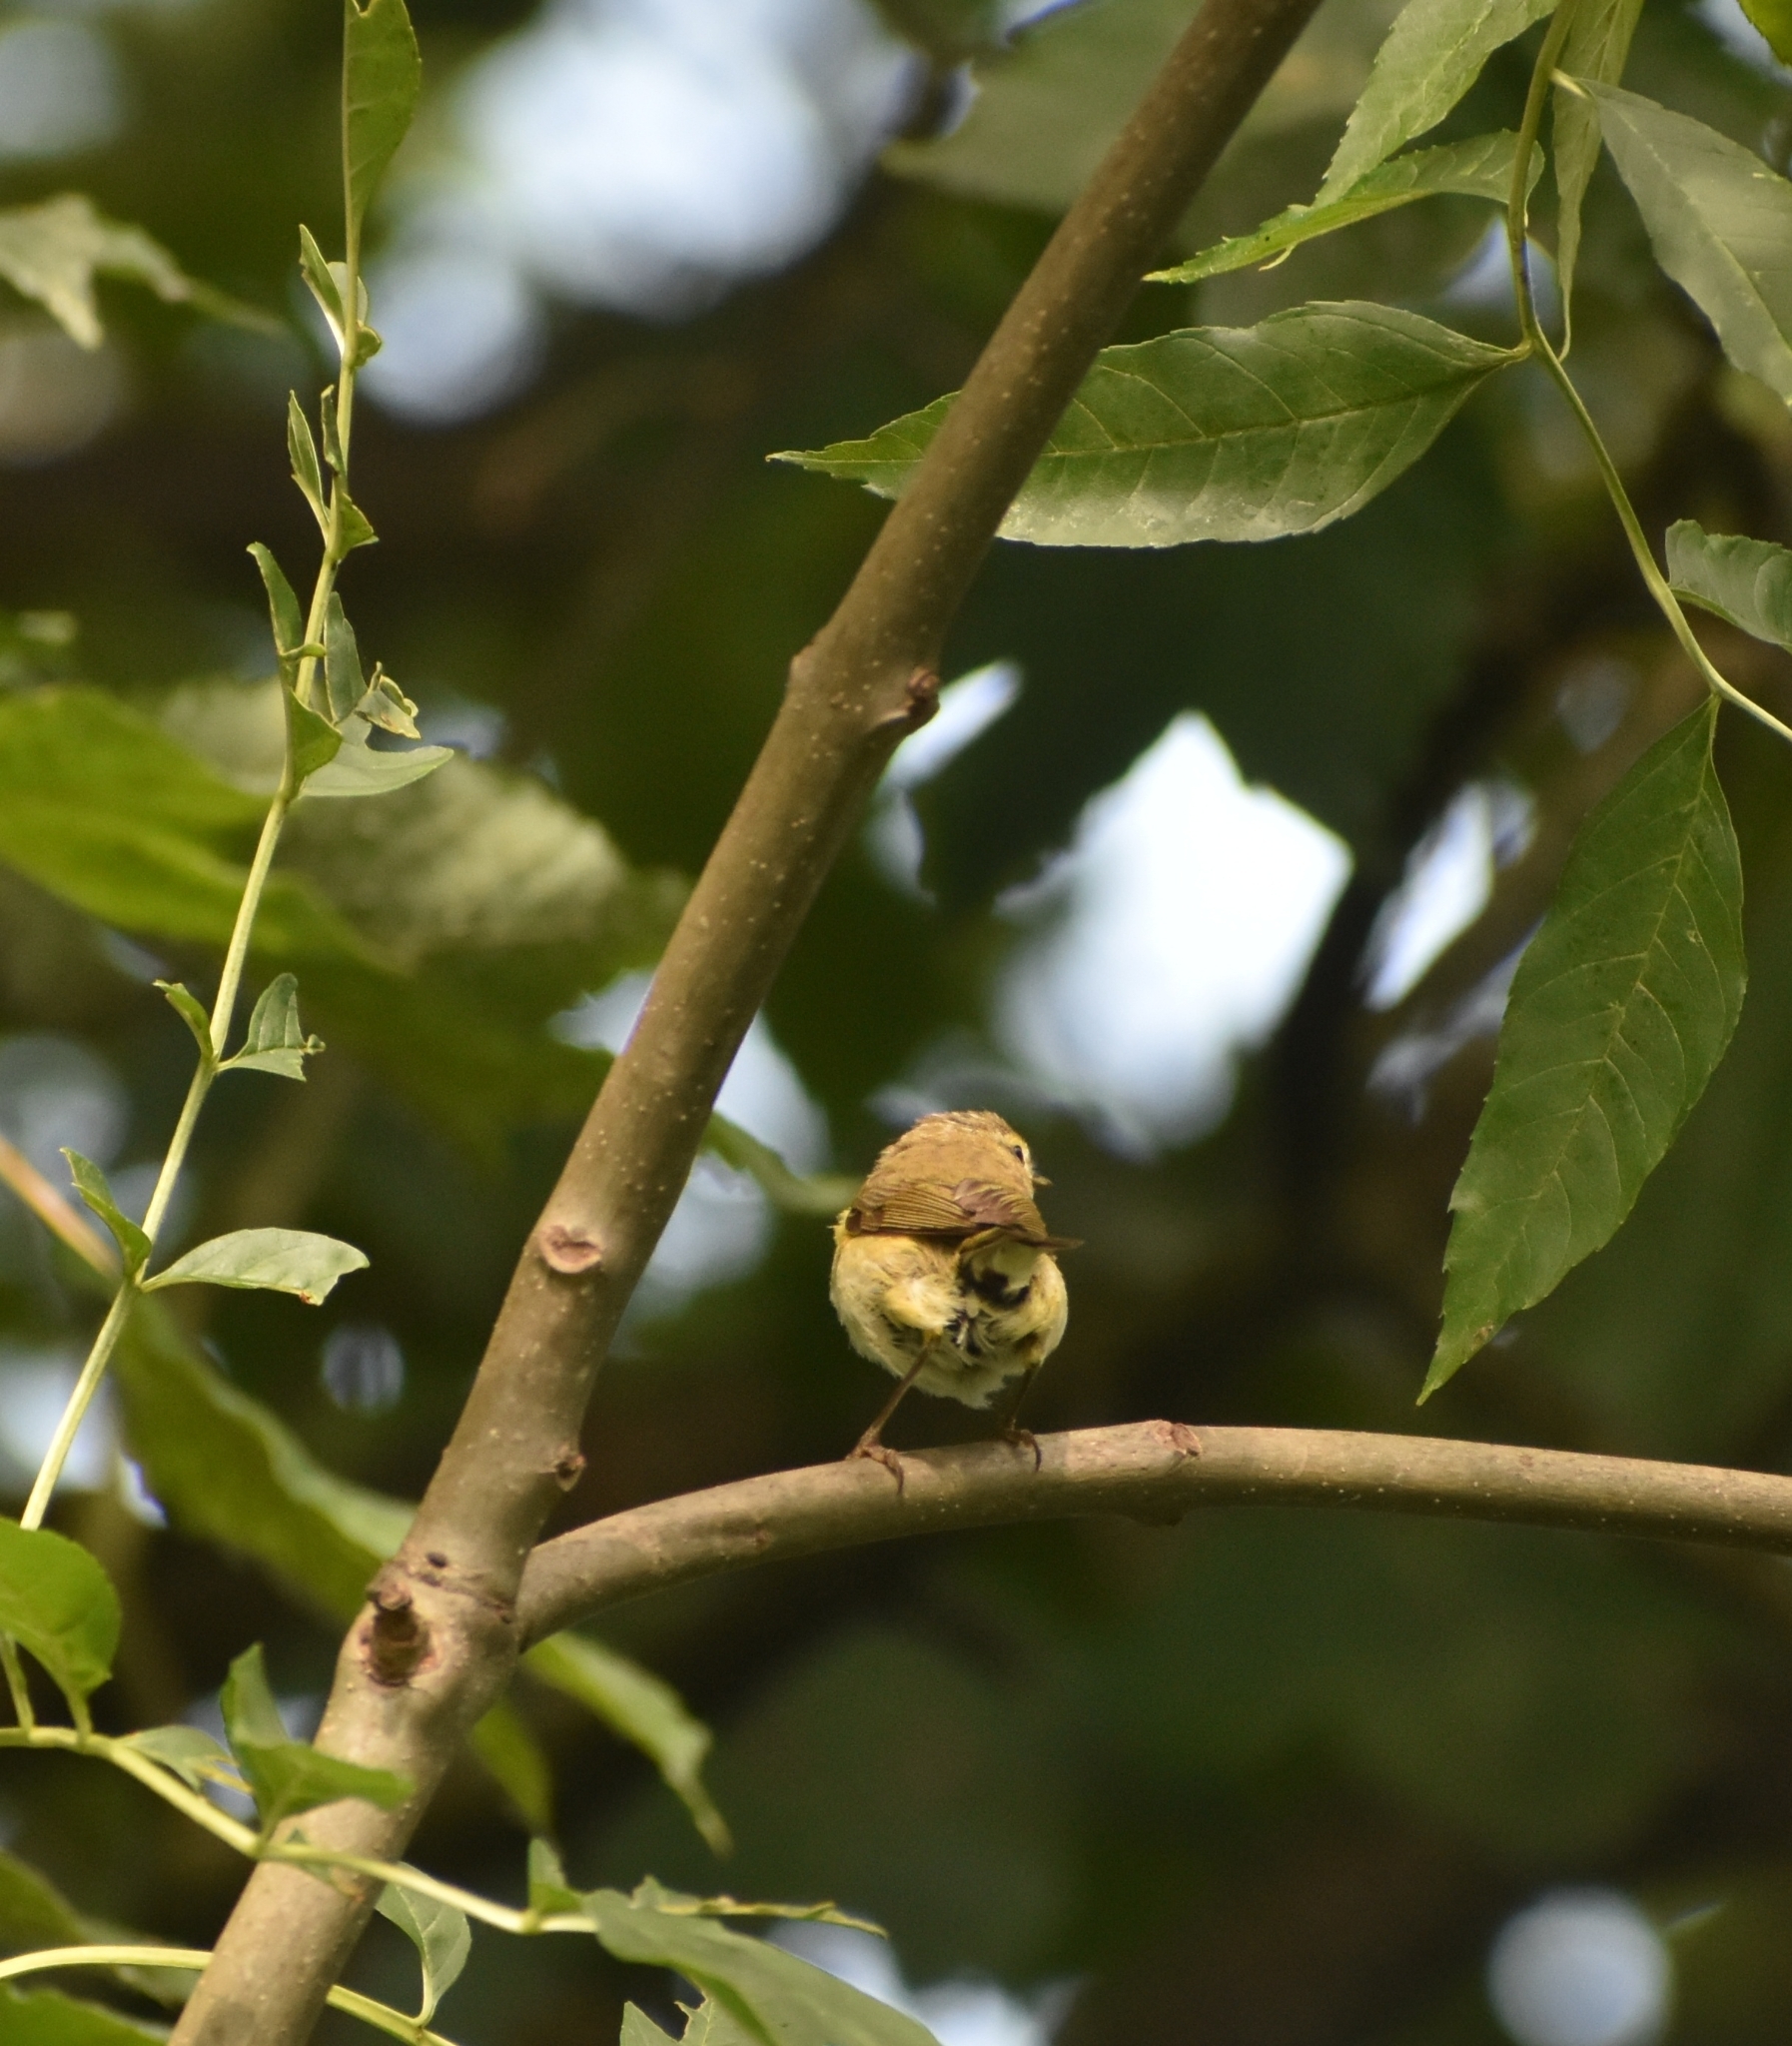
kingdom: Animalia
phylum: Chordata
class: Aves
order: Passeriformes
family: Phylloscopidae
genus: Phylloscopus
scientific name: Phylloscopus collybita
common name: Common chiffchaff
